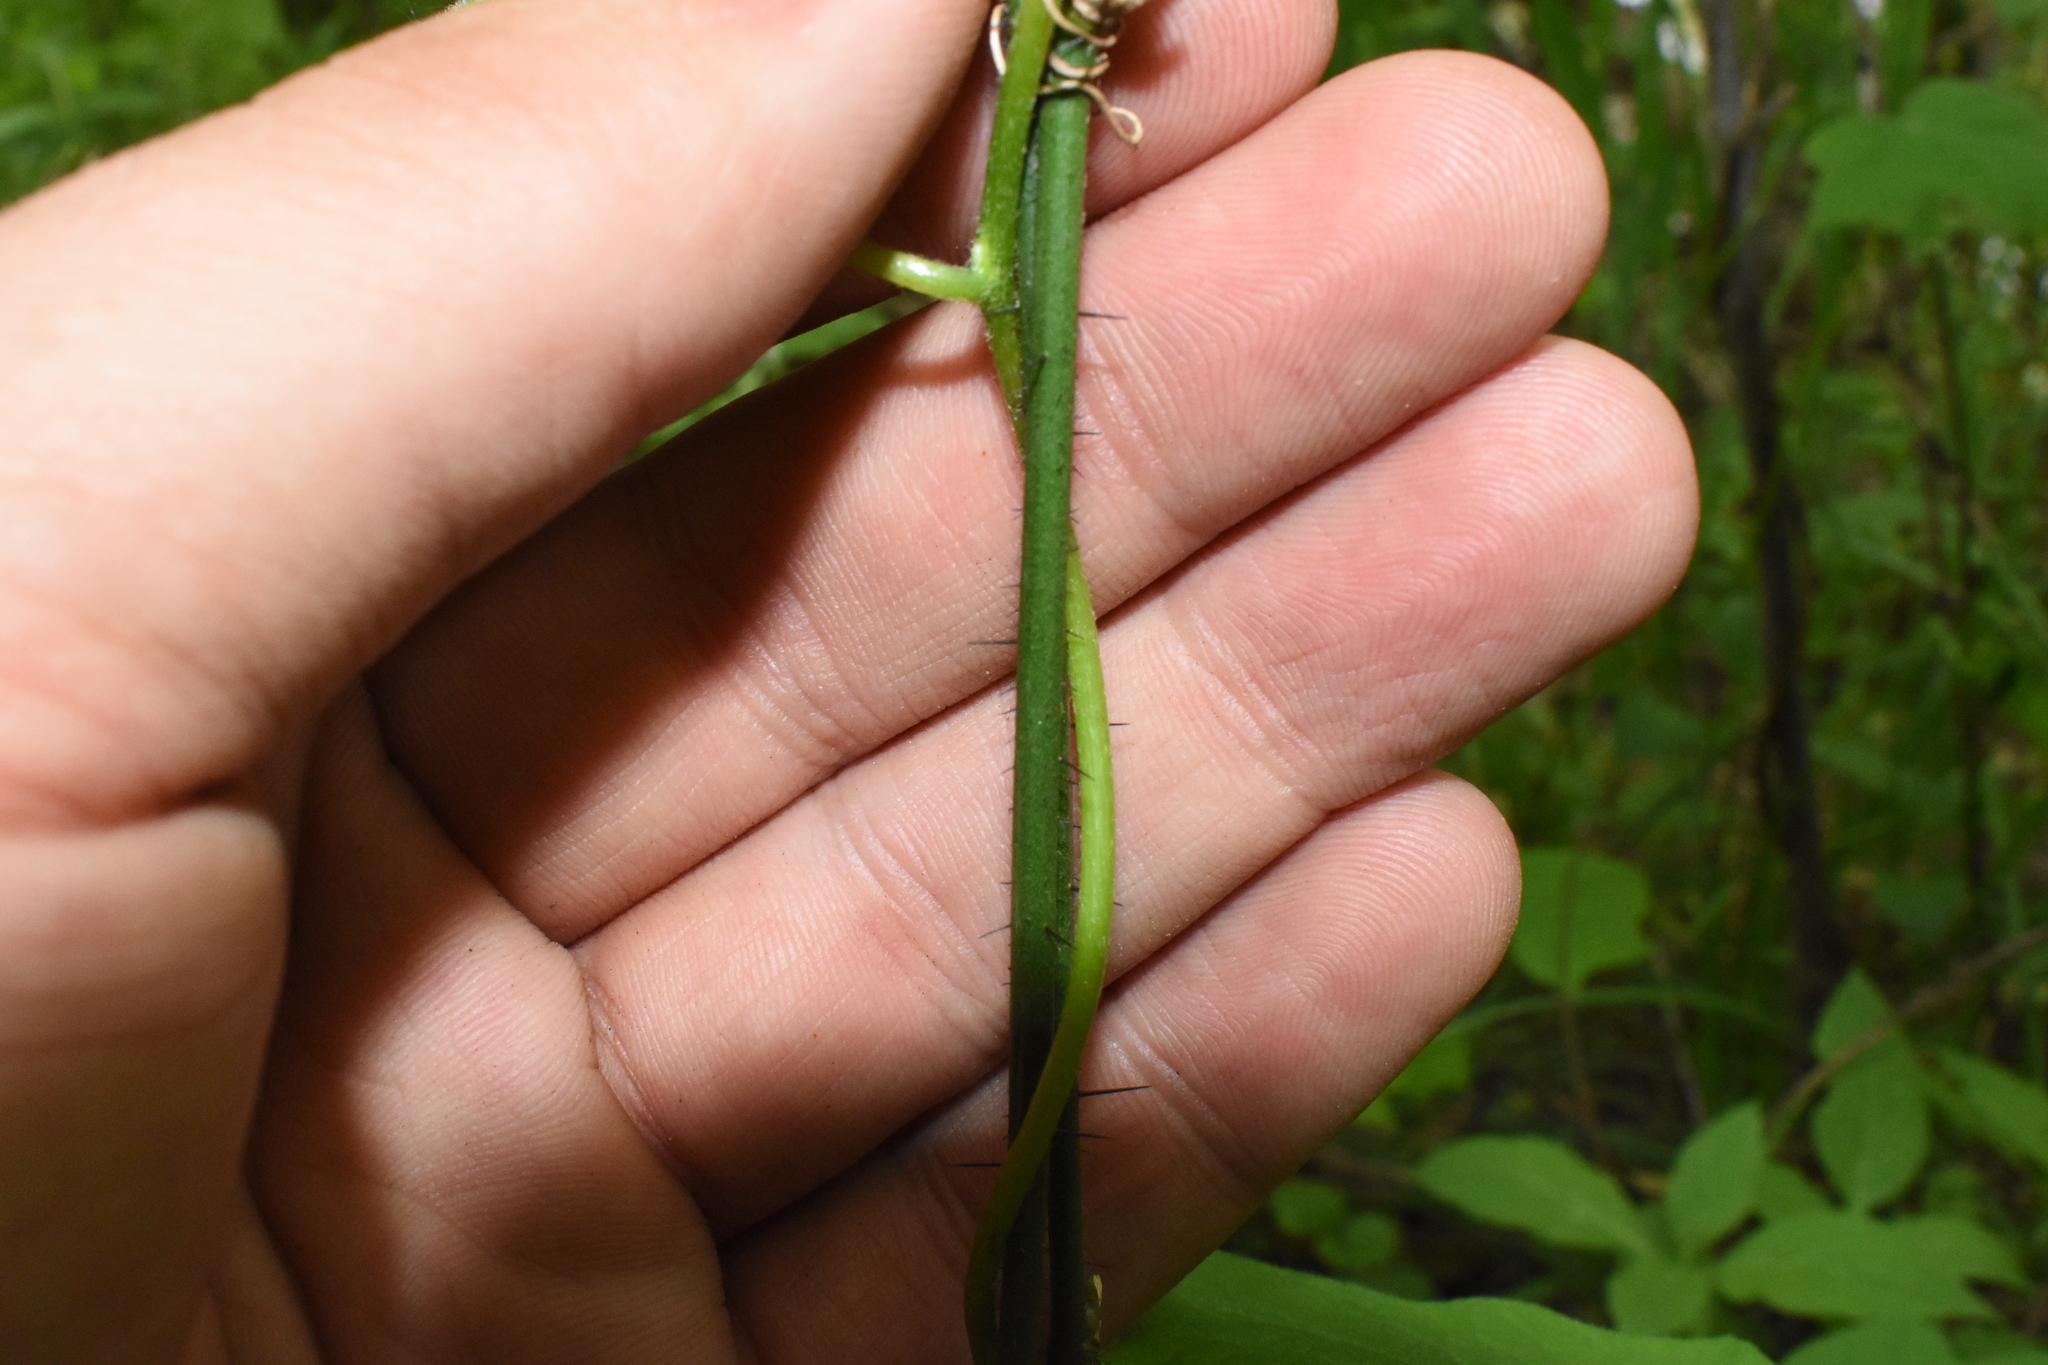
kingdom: Plantae
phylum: Tracheophyta
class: Liliopsida
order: Liliales
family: Smilacaceae
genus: Smilax
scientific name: Smilax tamnoides
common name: Hellfetter
